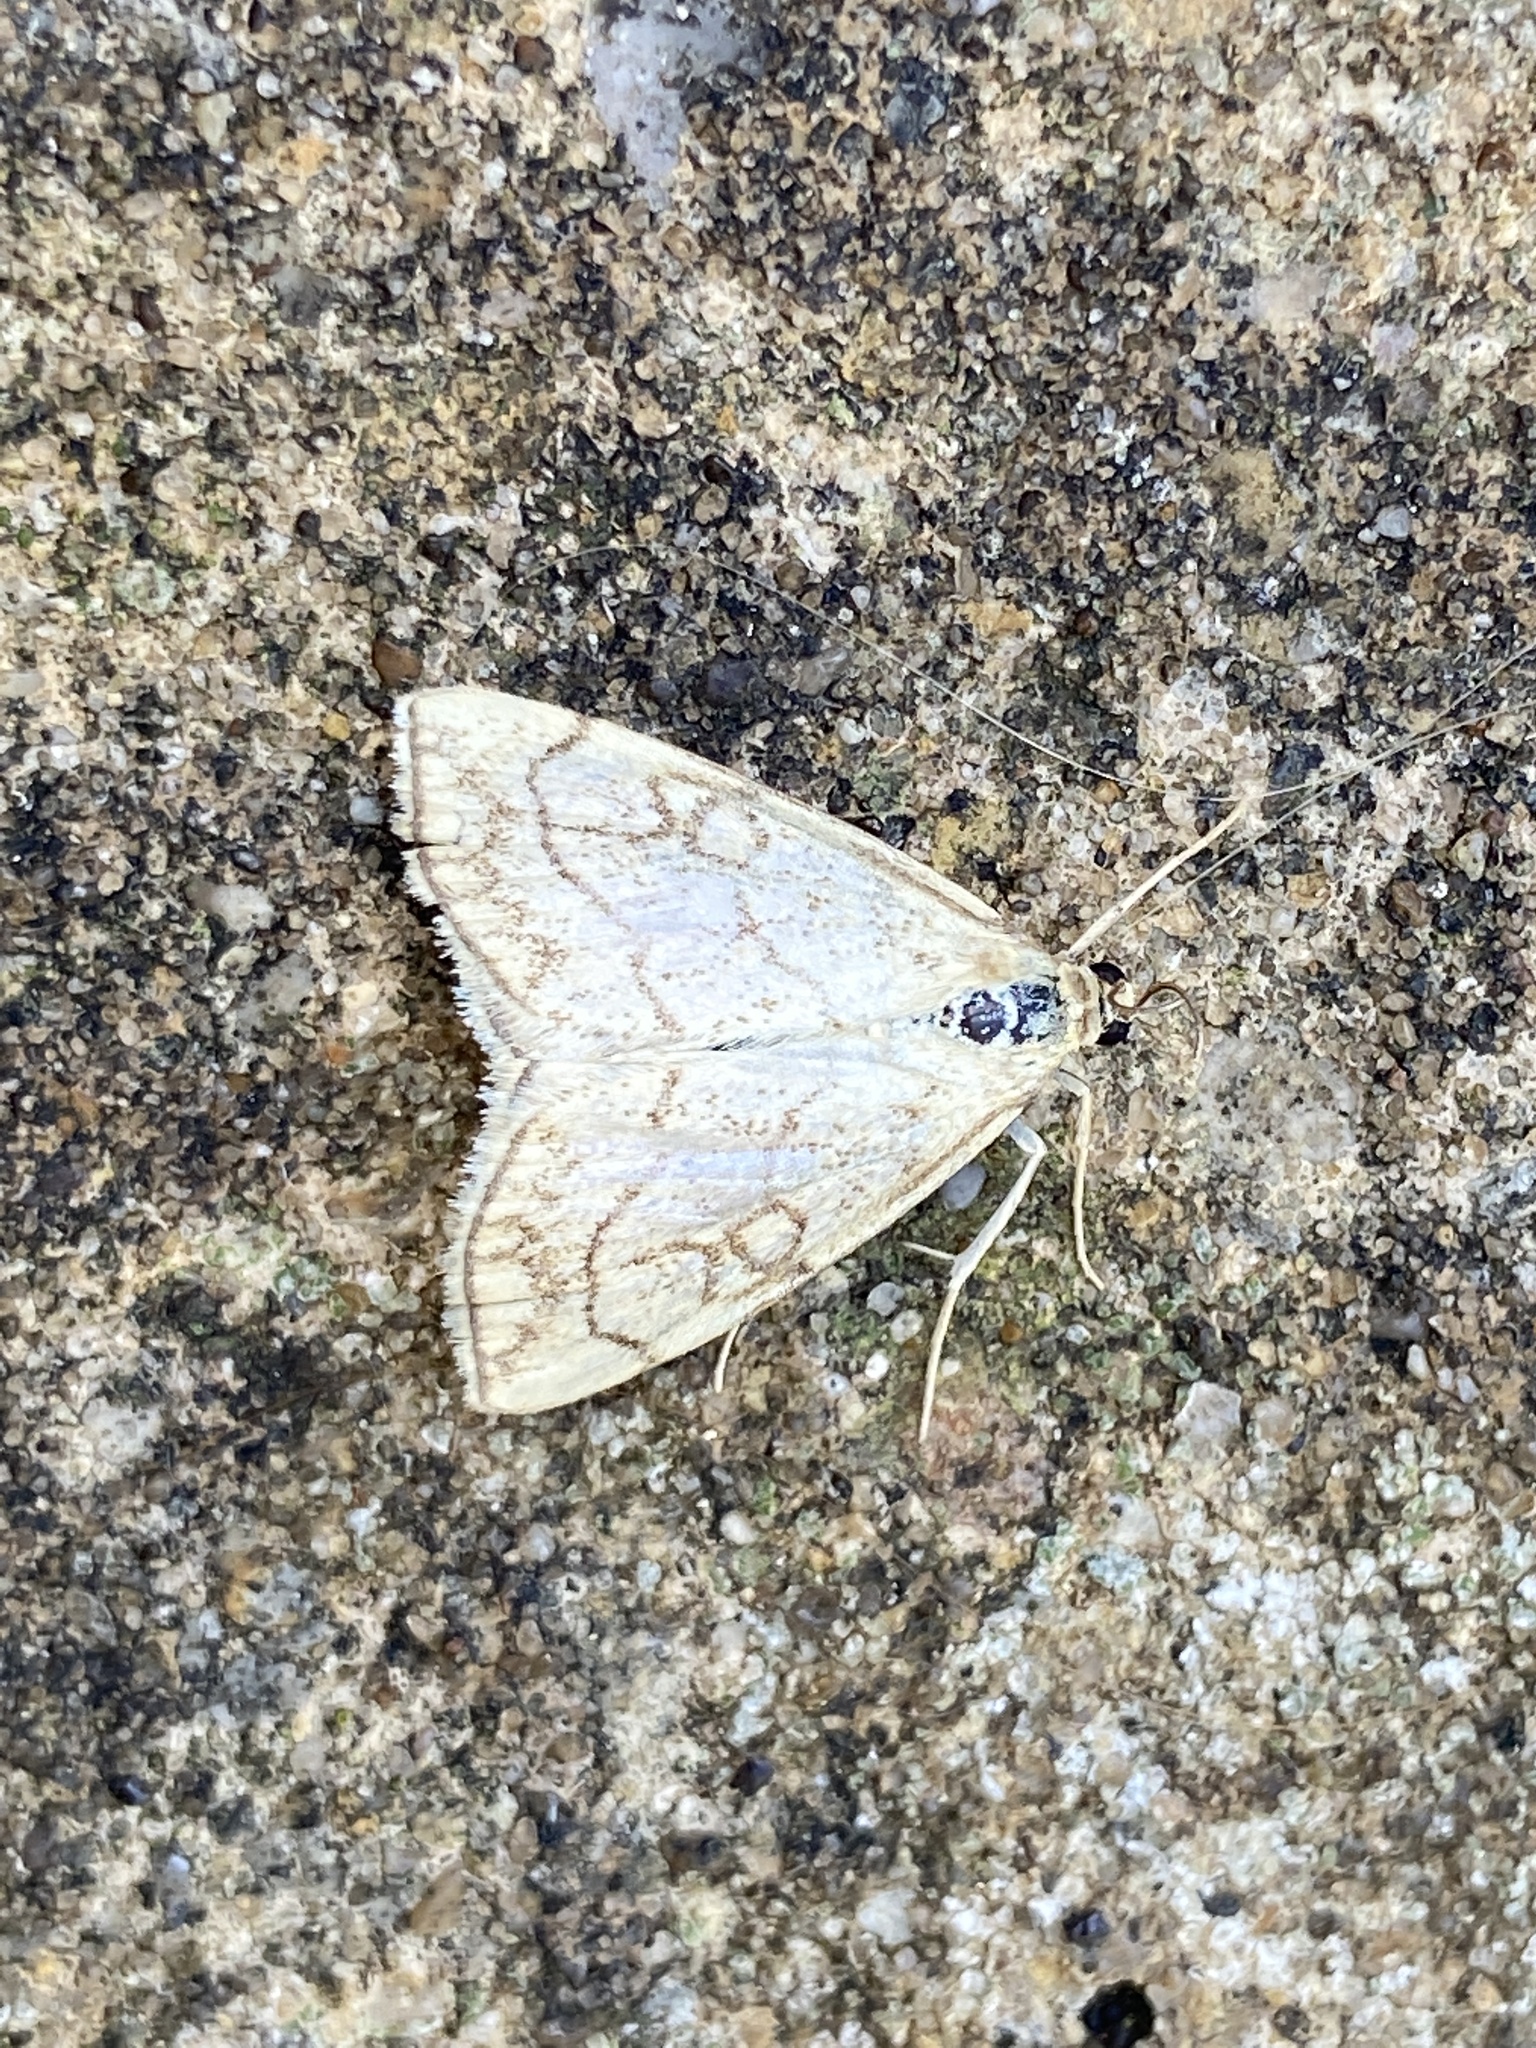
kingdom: Animalia
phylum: Arthropoda
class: Insecta
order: Lepidoptera
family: Crambidae
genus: Evergestis
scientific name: Evergestis pallidata
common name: Chequered pearl
